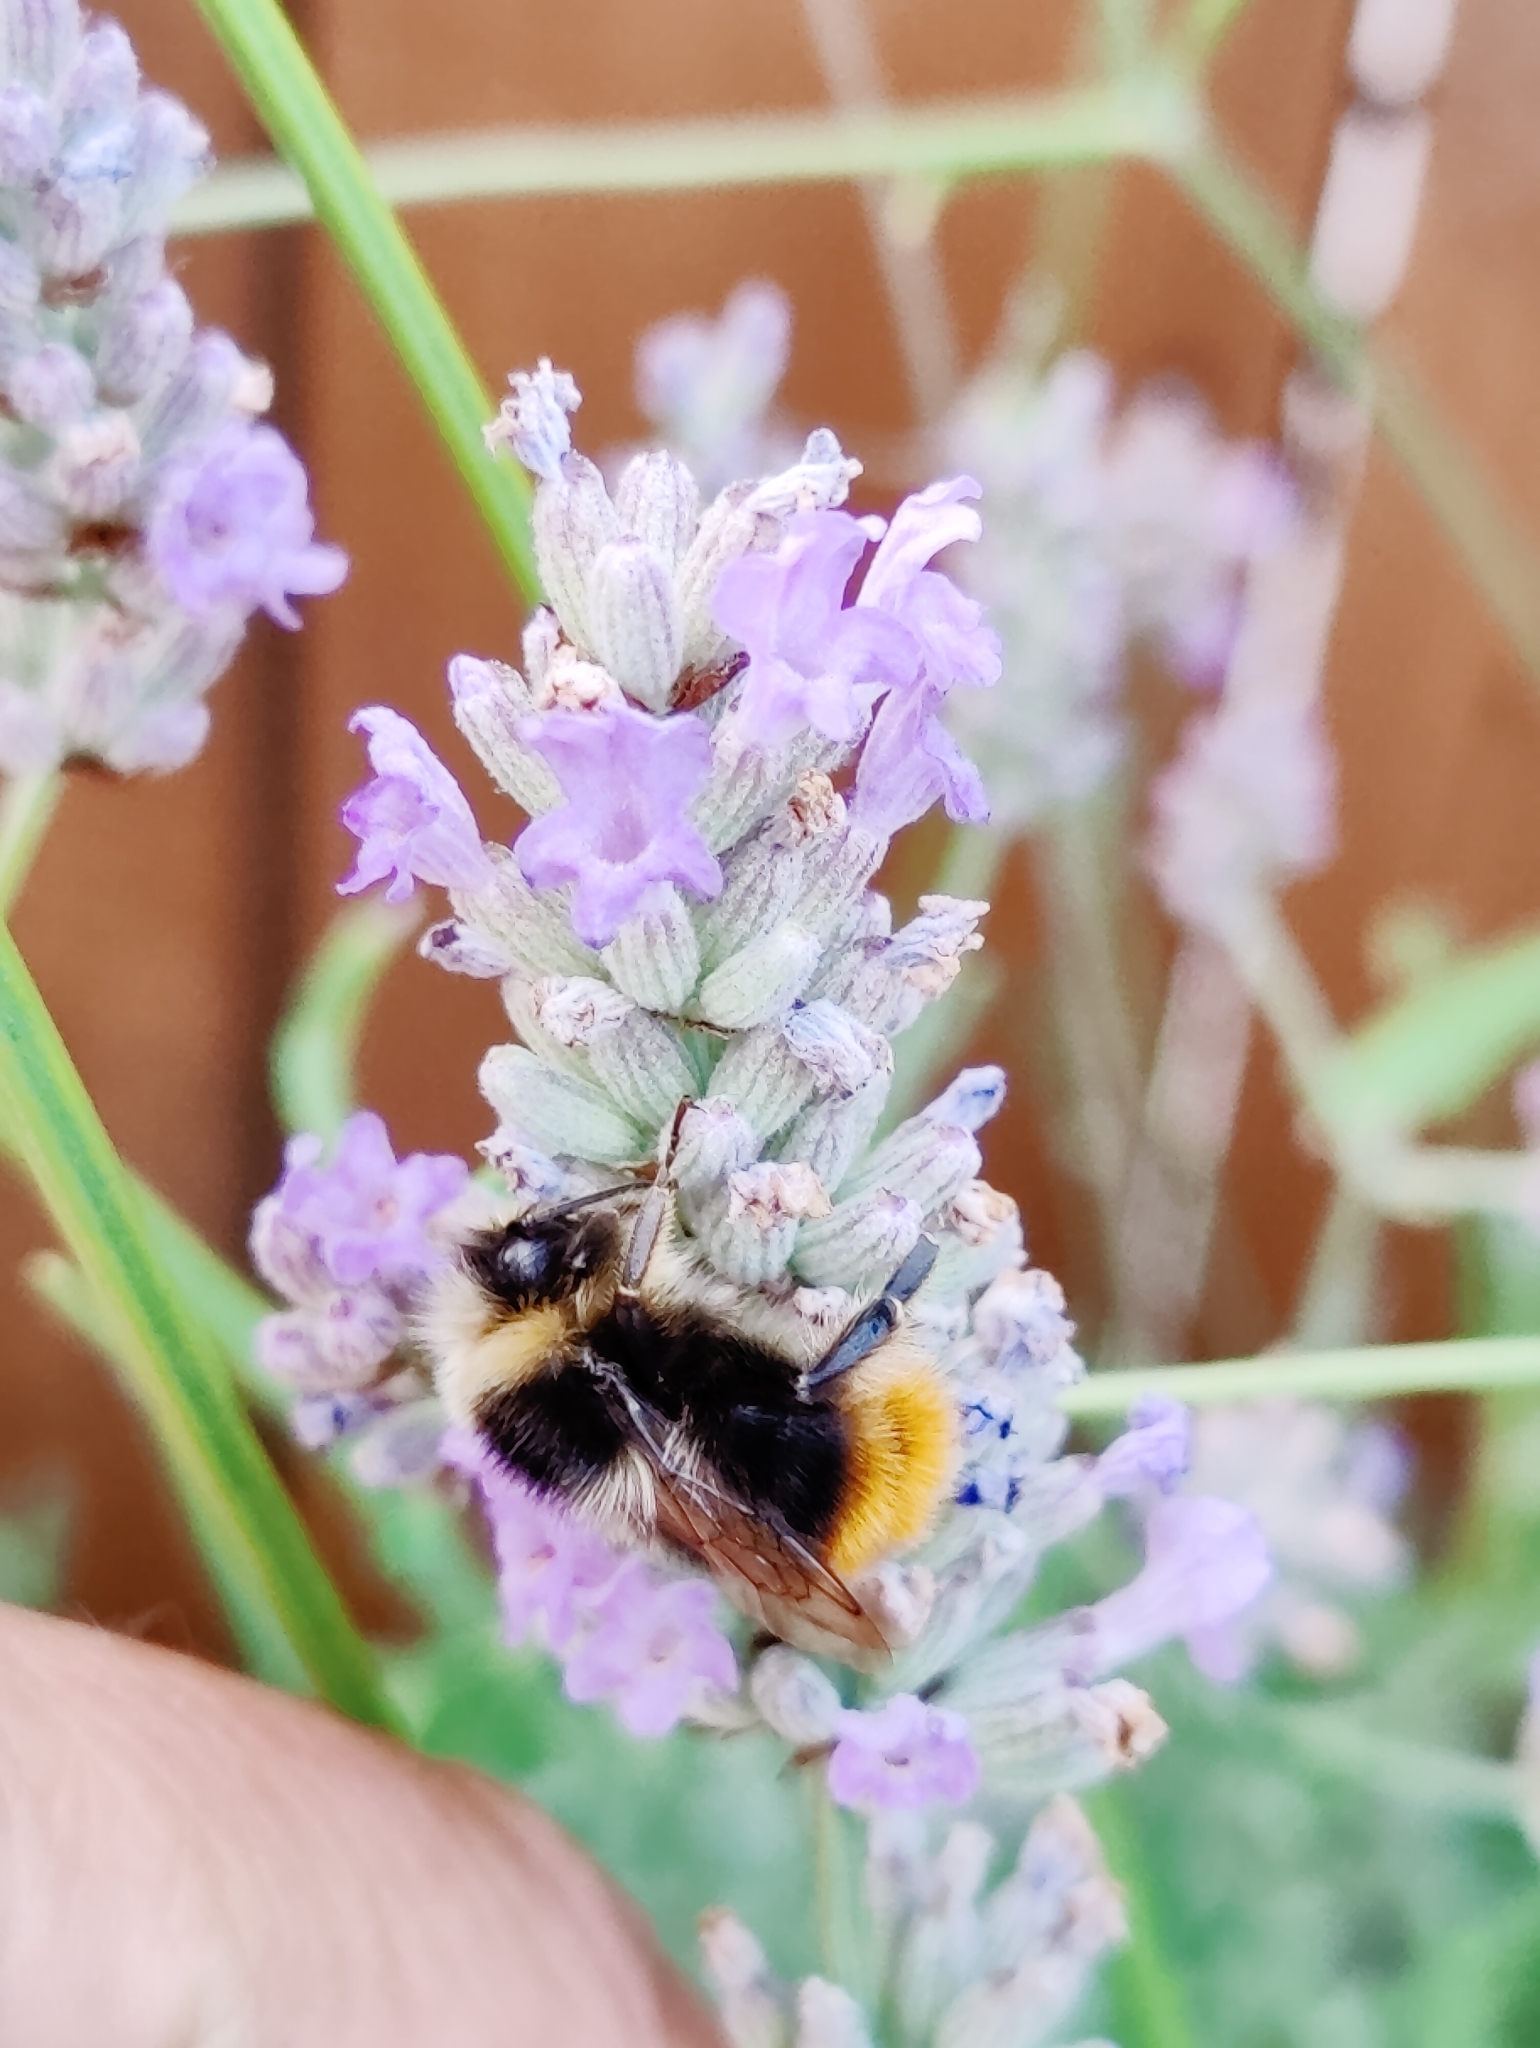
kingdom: Animalia
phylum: Arthropoda
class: Insecta
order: Hymenoptera
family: Apidae
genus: Bombus
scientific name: Bombus lapidarius
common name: Large red-tailed humble-bee
